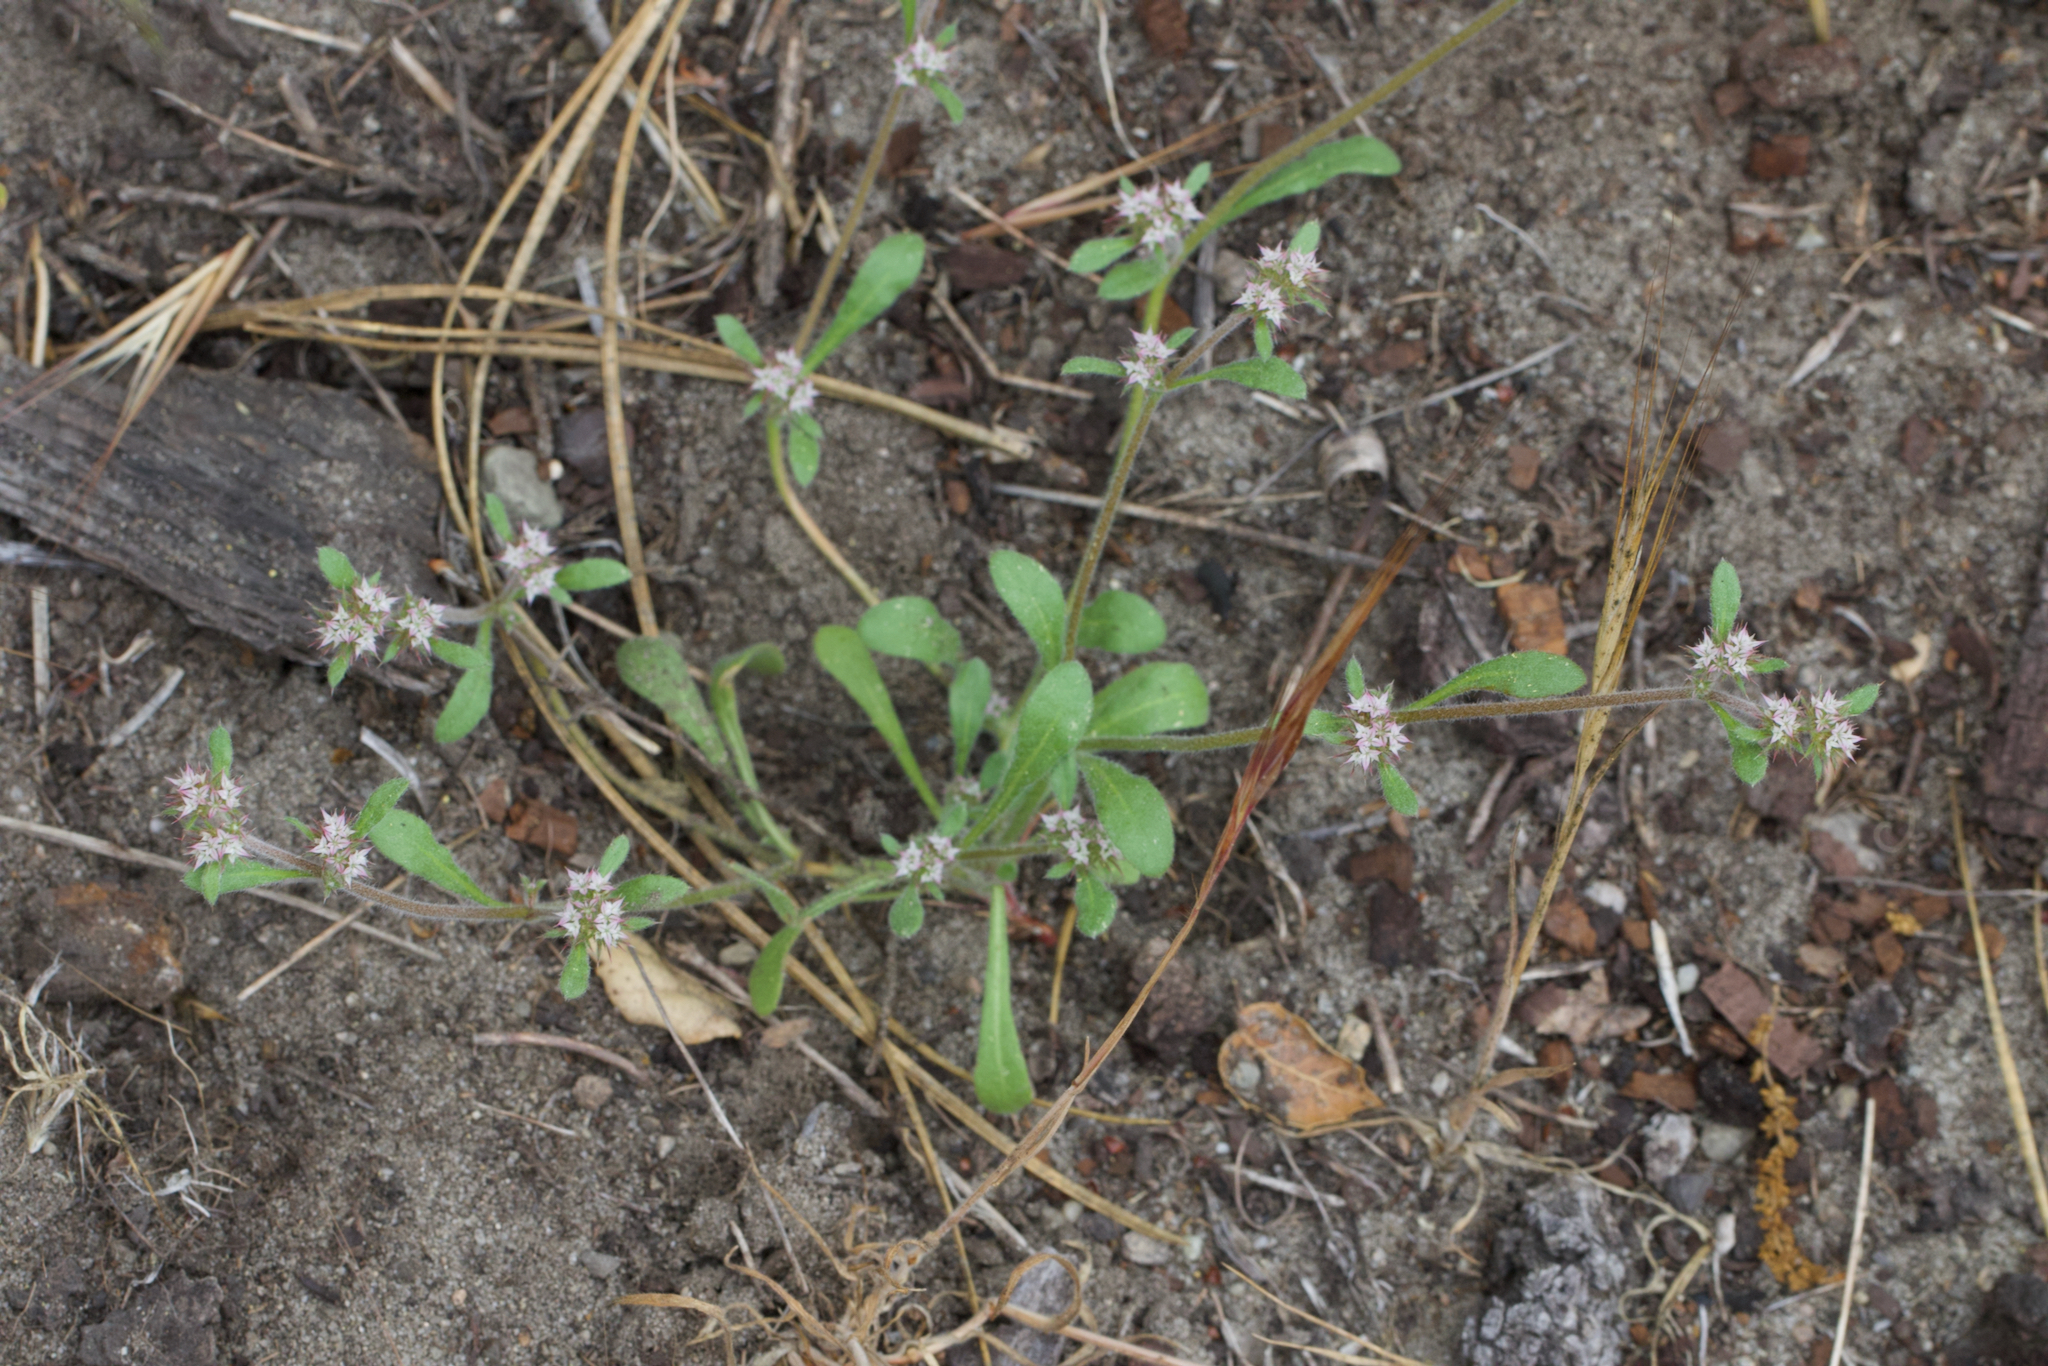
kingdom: Plantae
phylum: Tracheophyta
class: Magnoliopsida
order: Caryophyllales
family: Polygonaceae
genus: Chorizanthe
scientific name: Chorizanthe pungens
